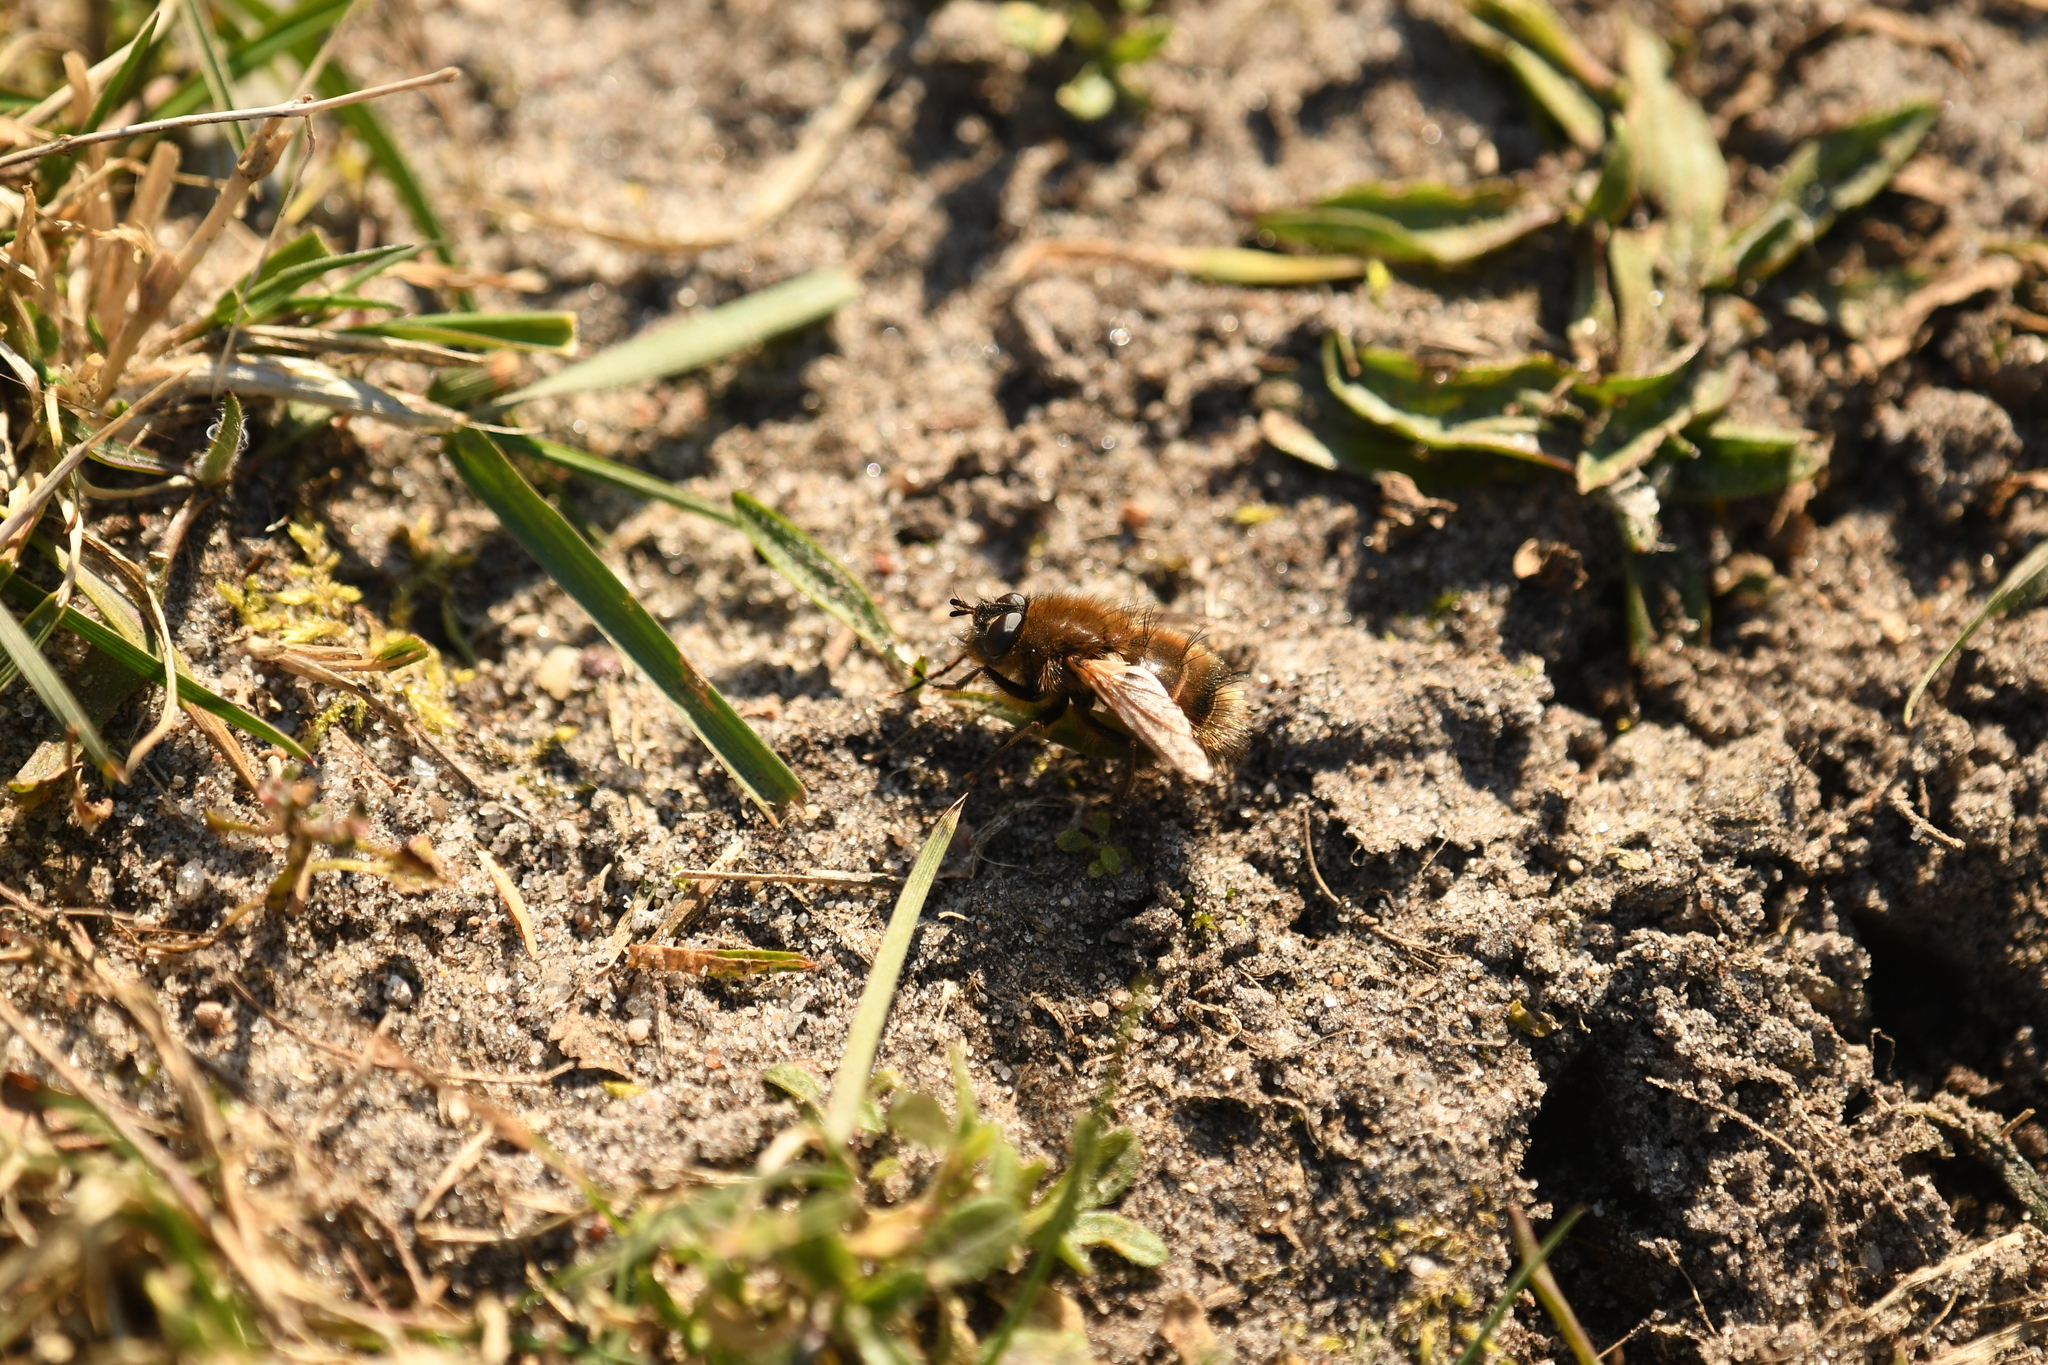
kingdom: Animalia
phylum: Arthropoda
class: Insecta
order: Diptera
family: Tachinidae
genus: Tachina
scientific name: Tachina ursina
